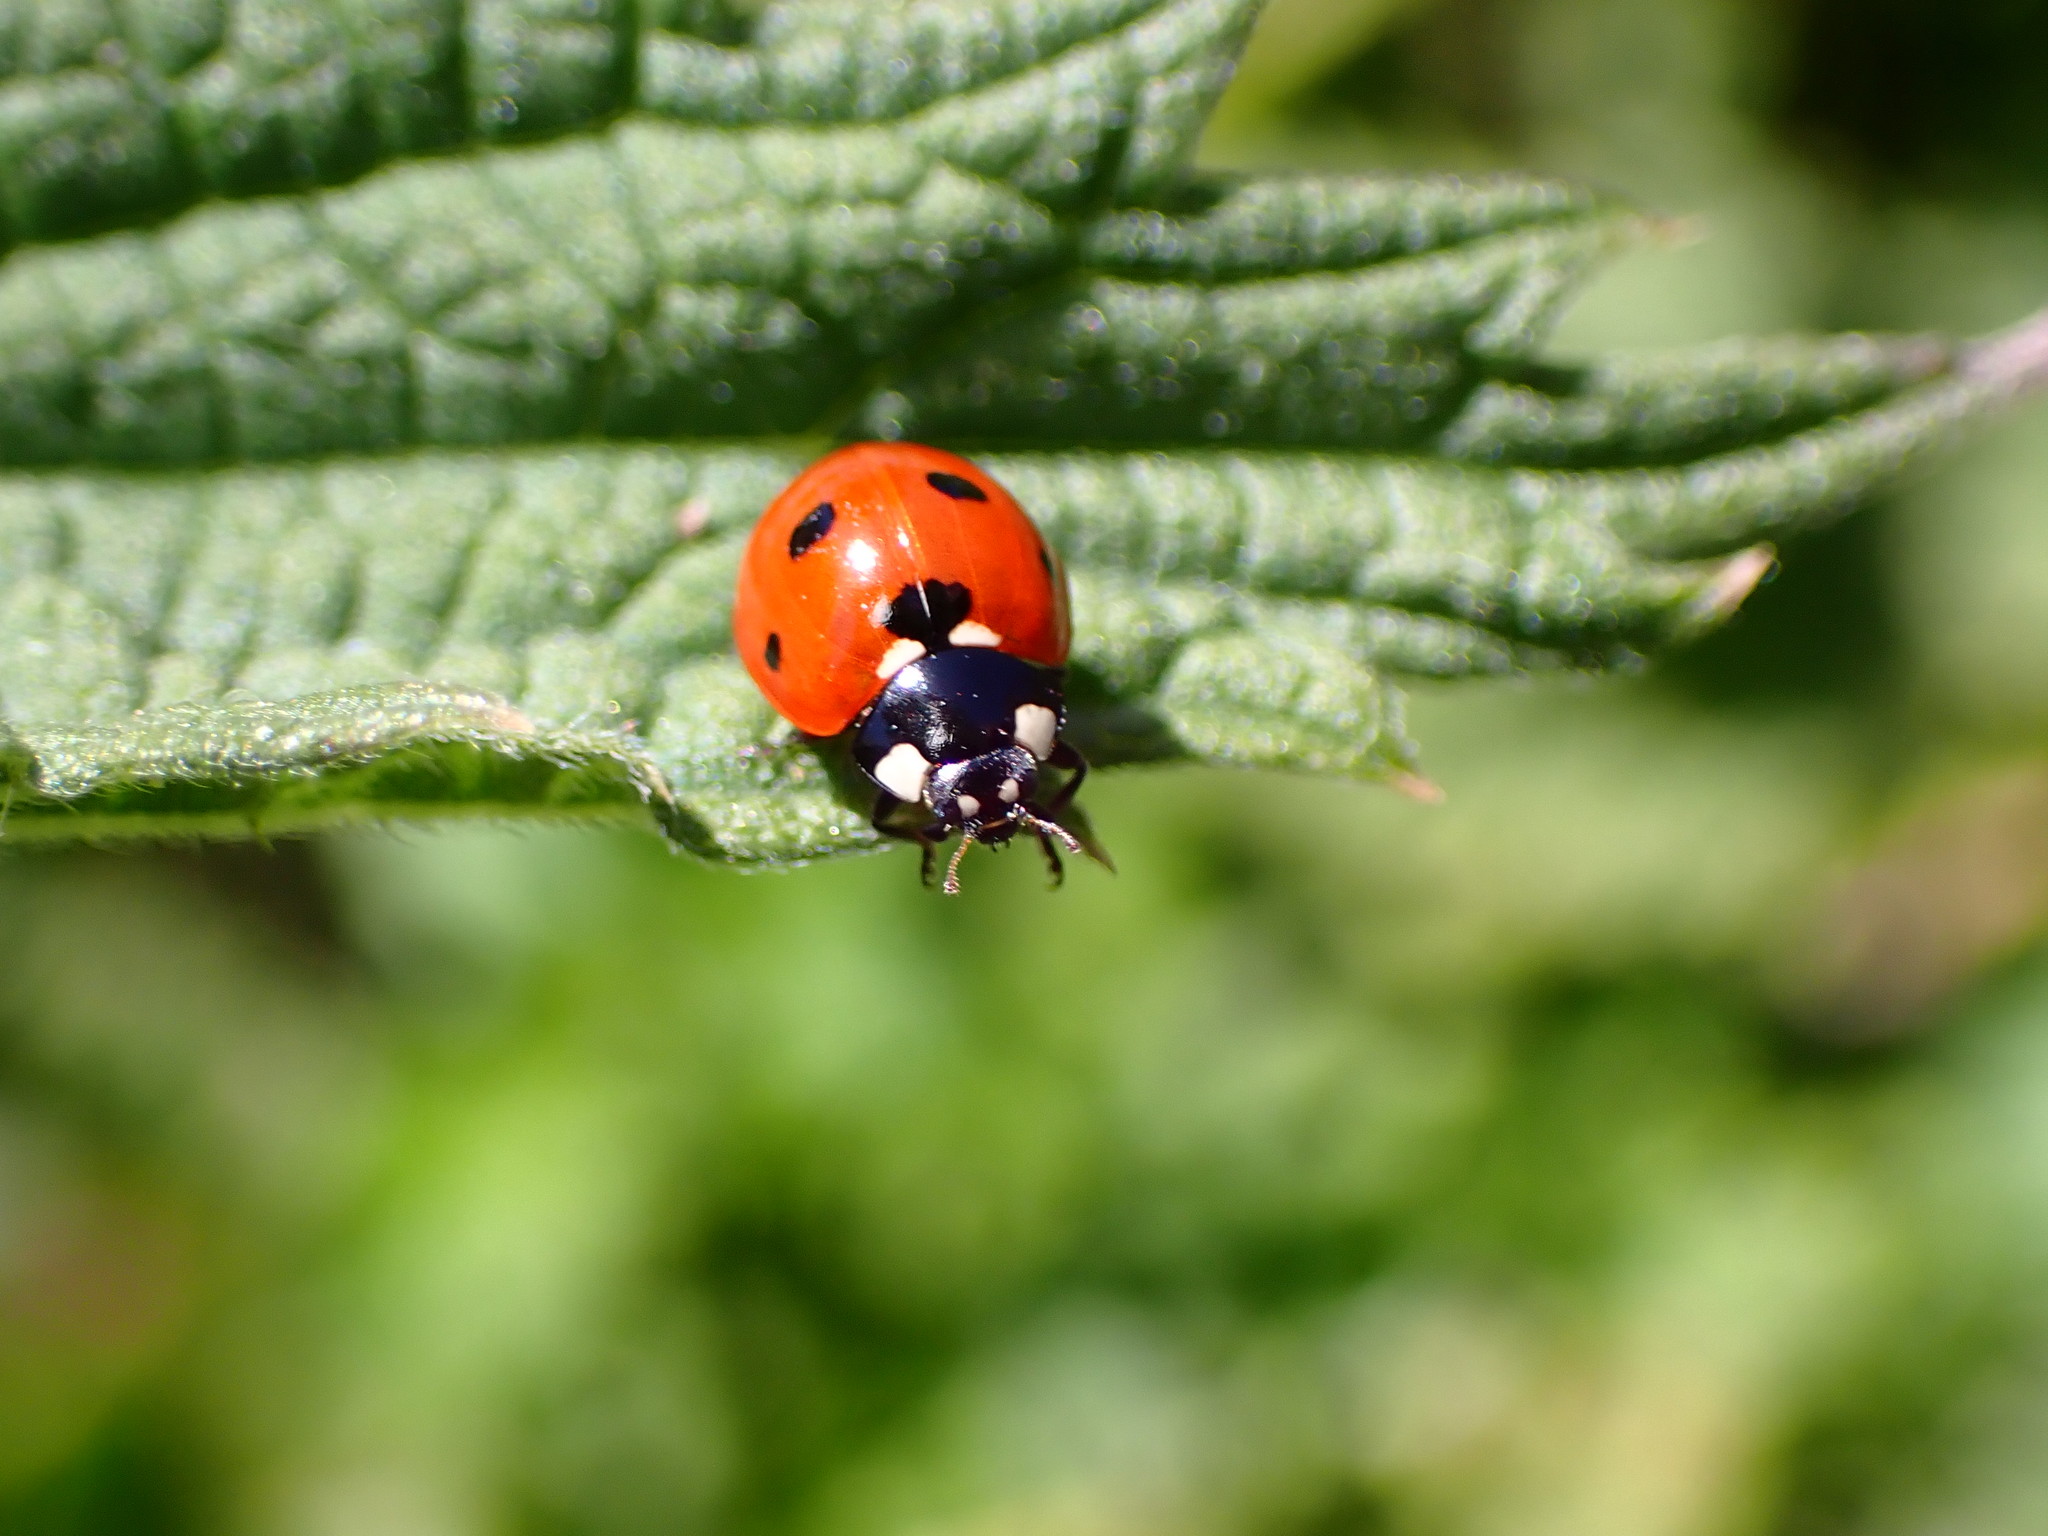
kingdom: Animalia
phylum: Arthropoda
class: Insecta
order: Coleoptera
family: Coccinellidae
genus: Coccinella
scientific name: Coccinella septempunctata
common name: Sevenspotted lady beetle
